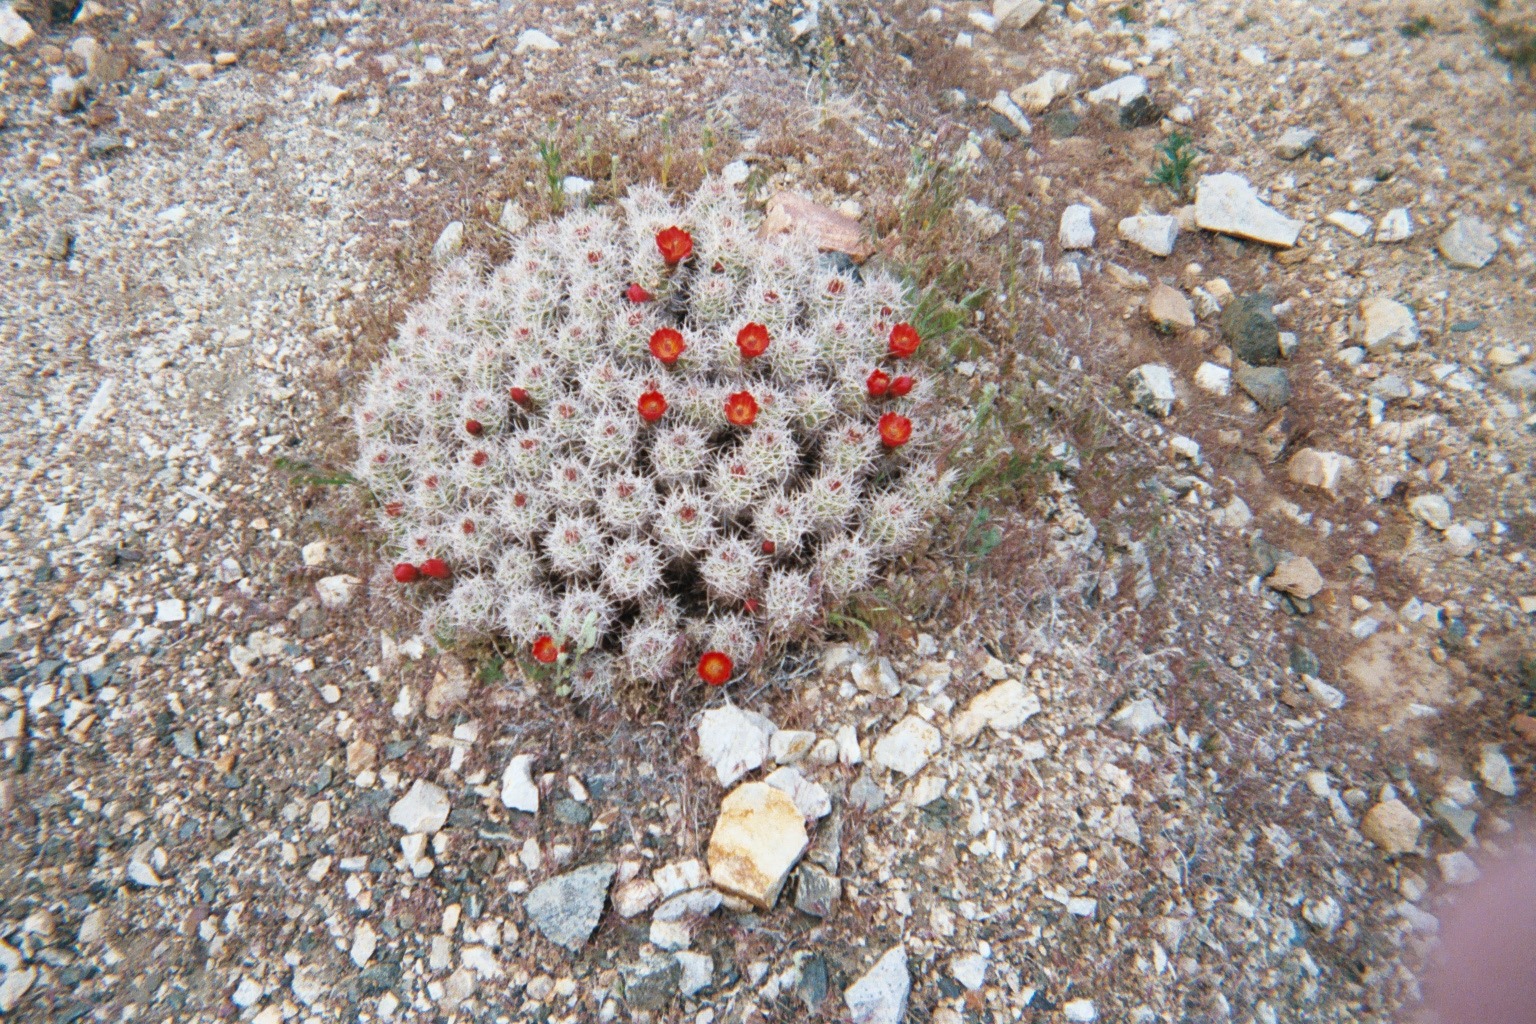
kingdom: Plantae
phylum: Tracheophyta
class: Magnoliopsida
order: Caryophyllales
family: Cactaceae
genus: Echinocereus
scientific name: Echinocereus triglochidiatus
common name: Claretcup hedgehog
